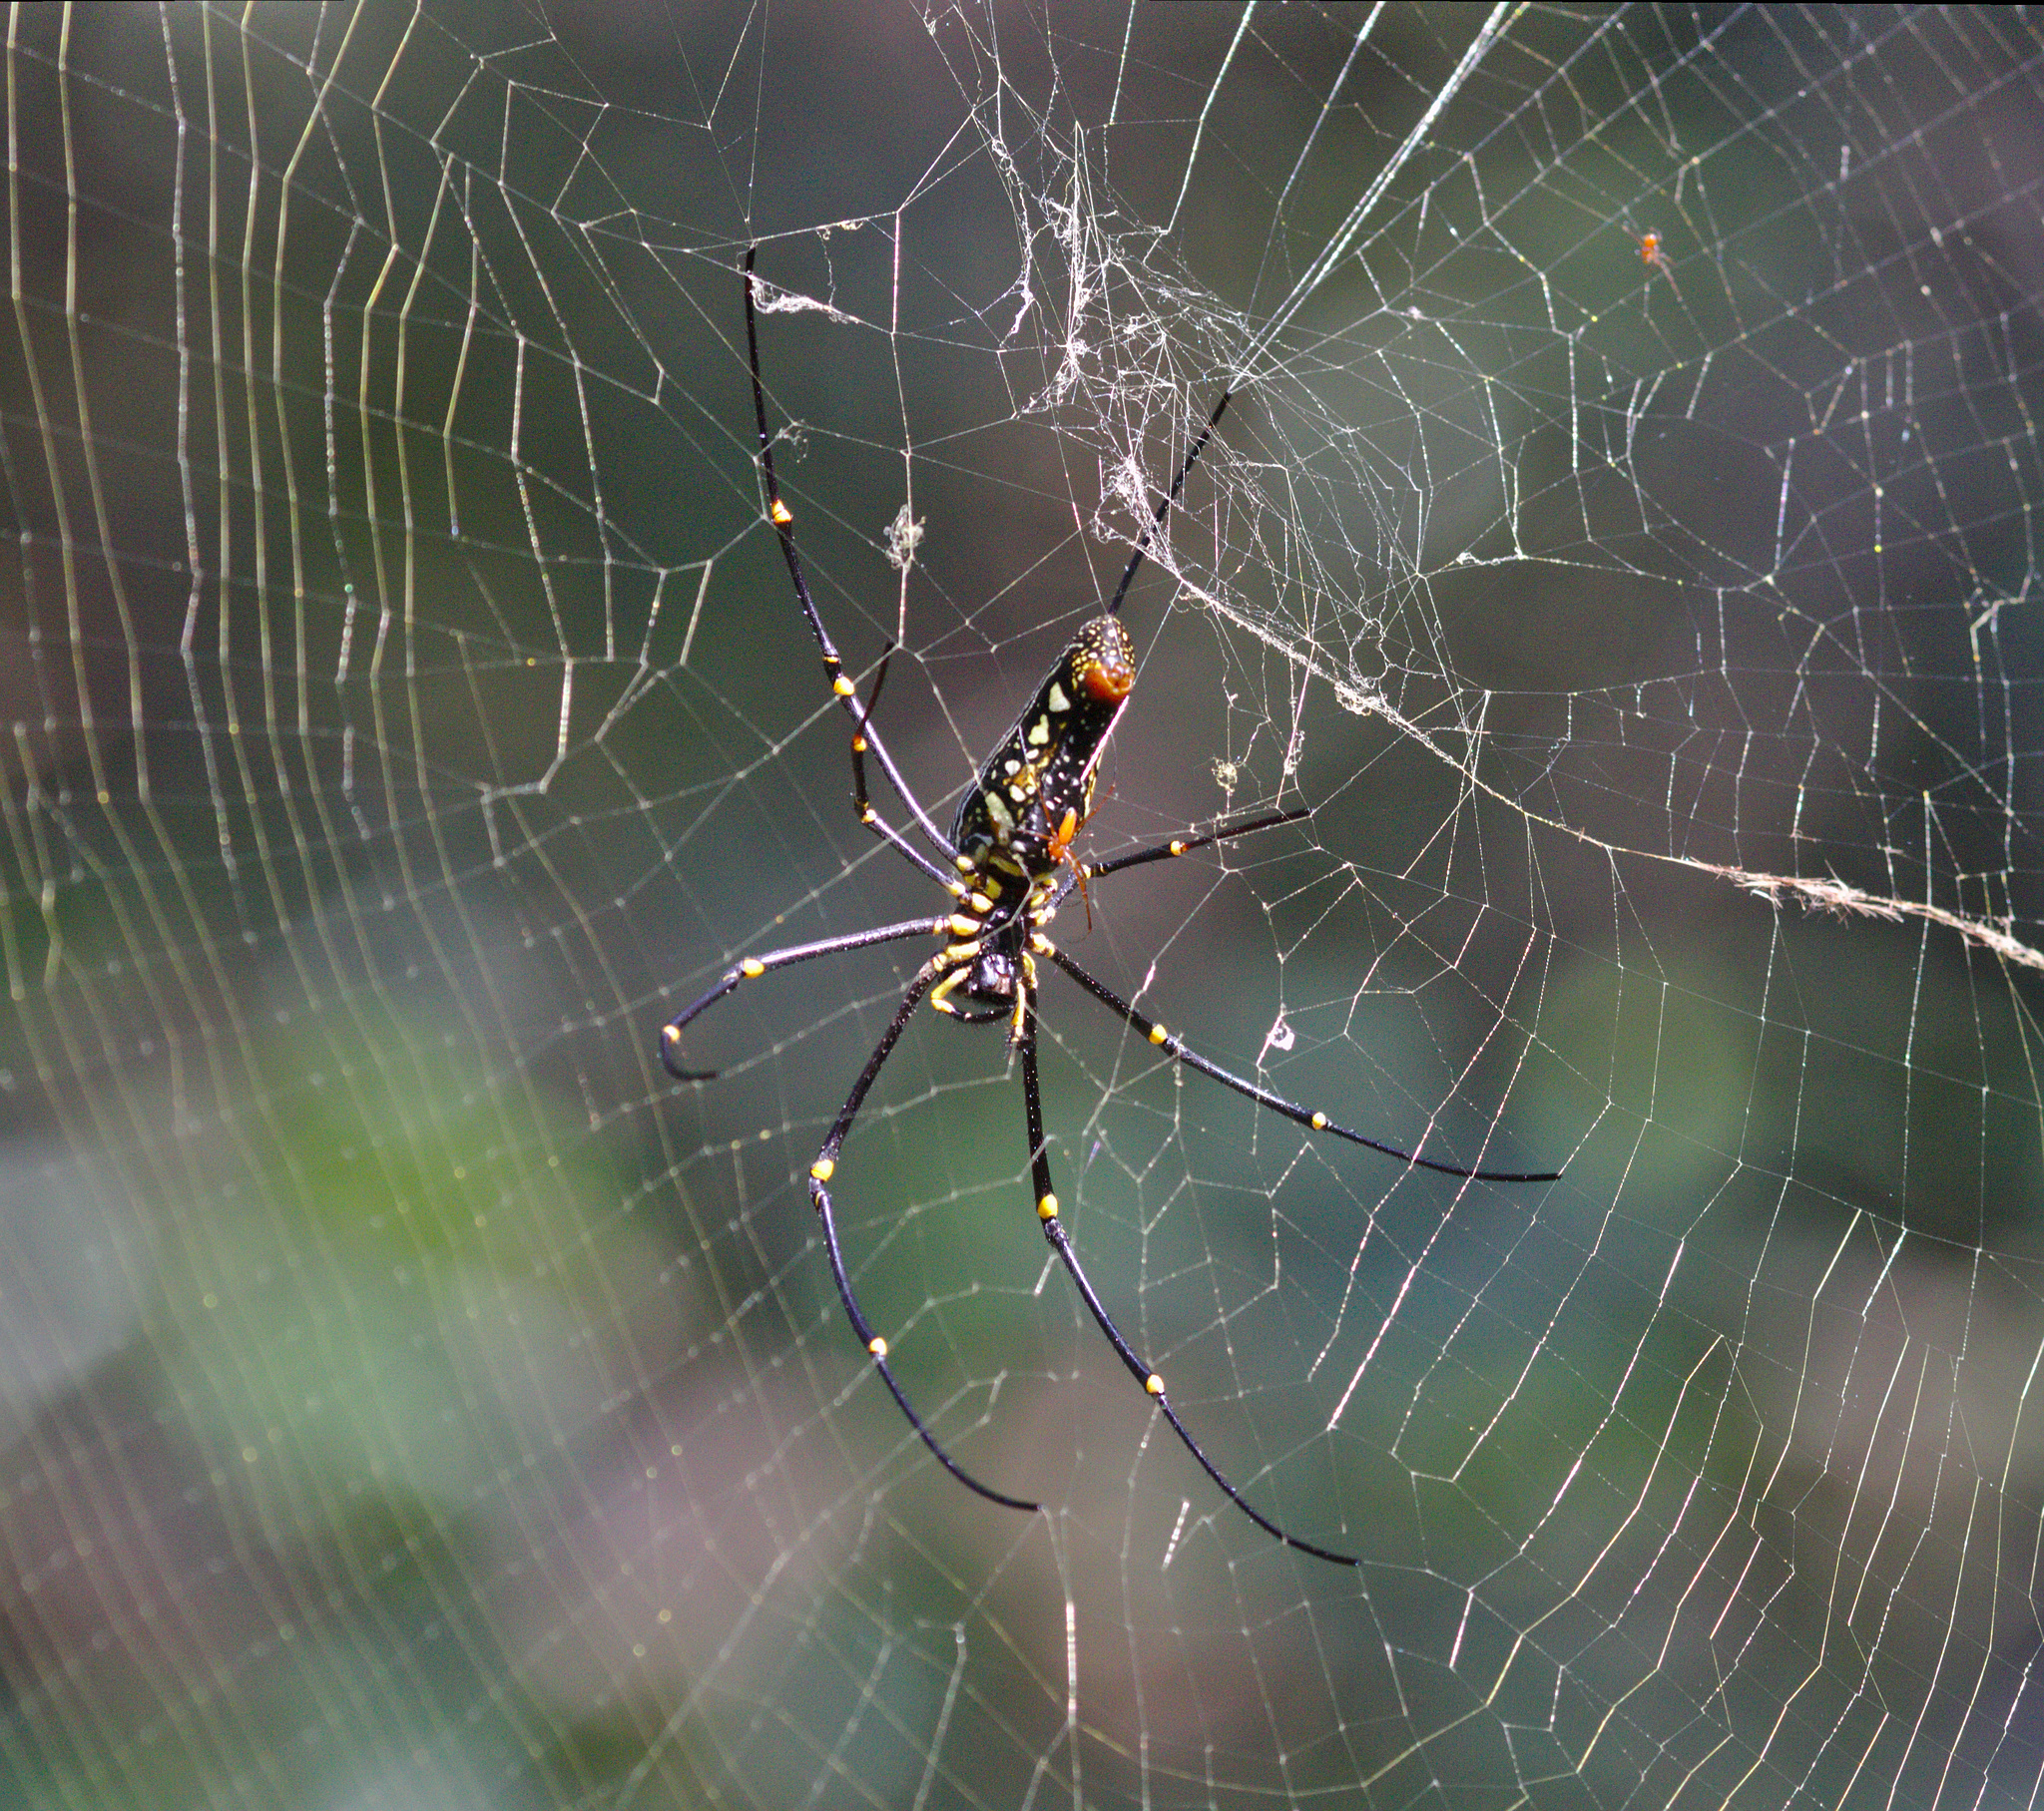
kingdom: Animalia
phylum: Arthropoda
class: Arachnida
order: Araneae
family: Araneidae
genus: Nephila
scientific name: Nephila pilipes
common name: Giant golden orb weaver
